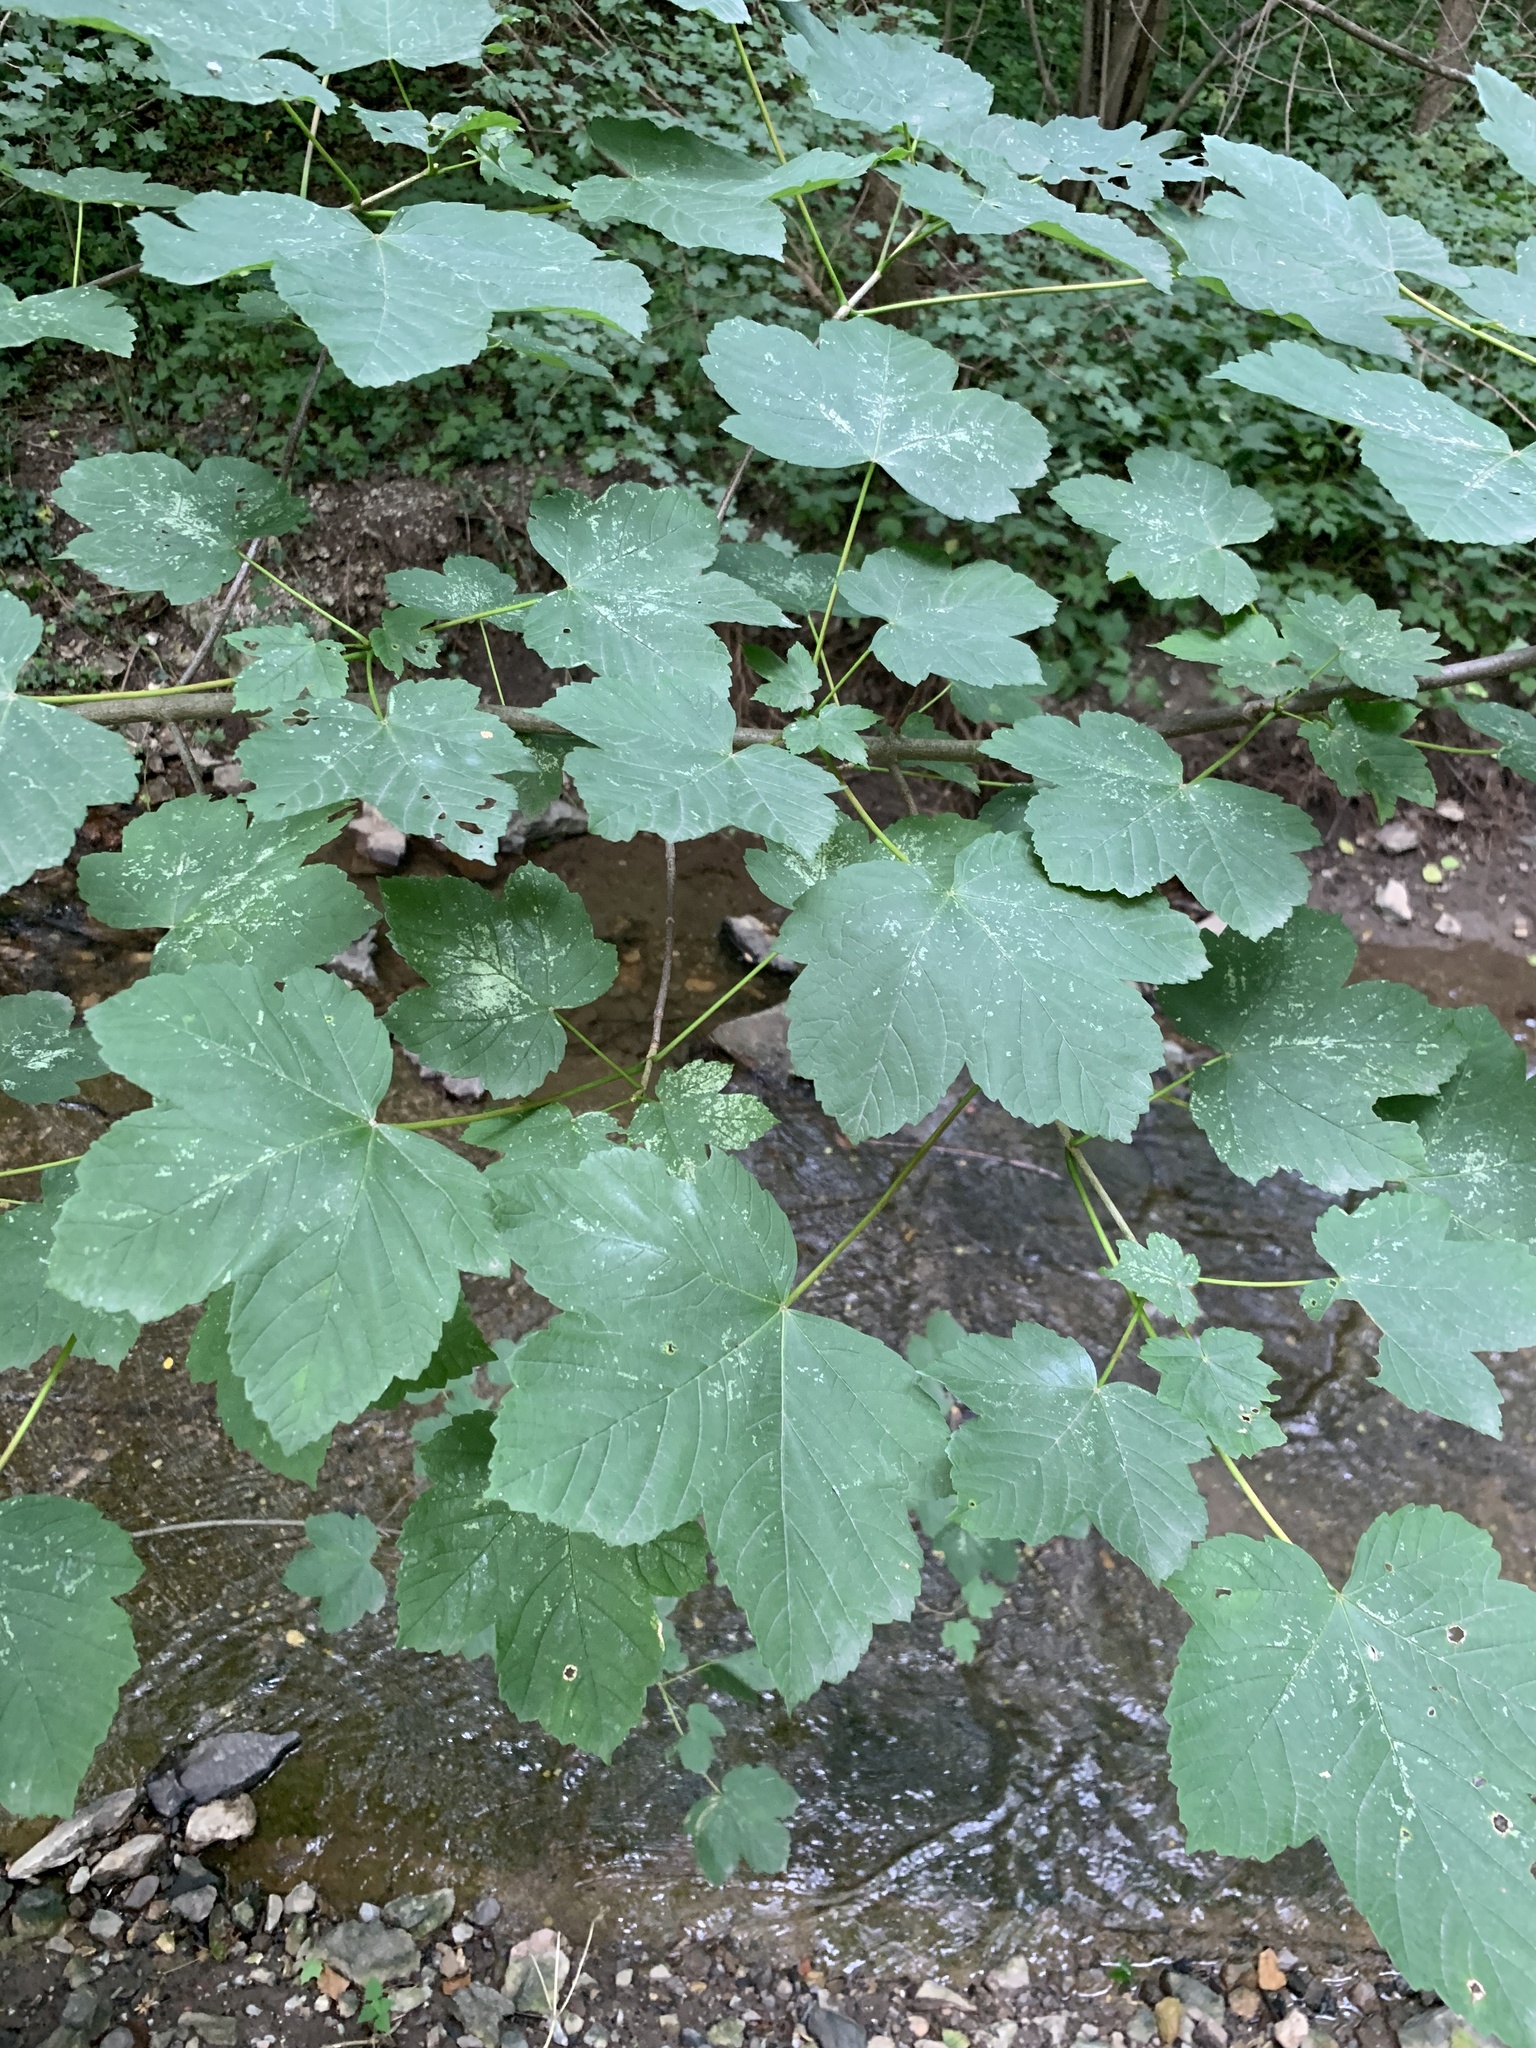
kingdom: Plantae
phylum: Tracheophyta
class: Magnoliopsida
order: Sapindales
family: Sapindaceae
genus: Acer
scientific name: Acer pseudoplatanus
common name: Sycamore
